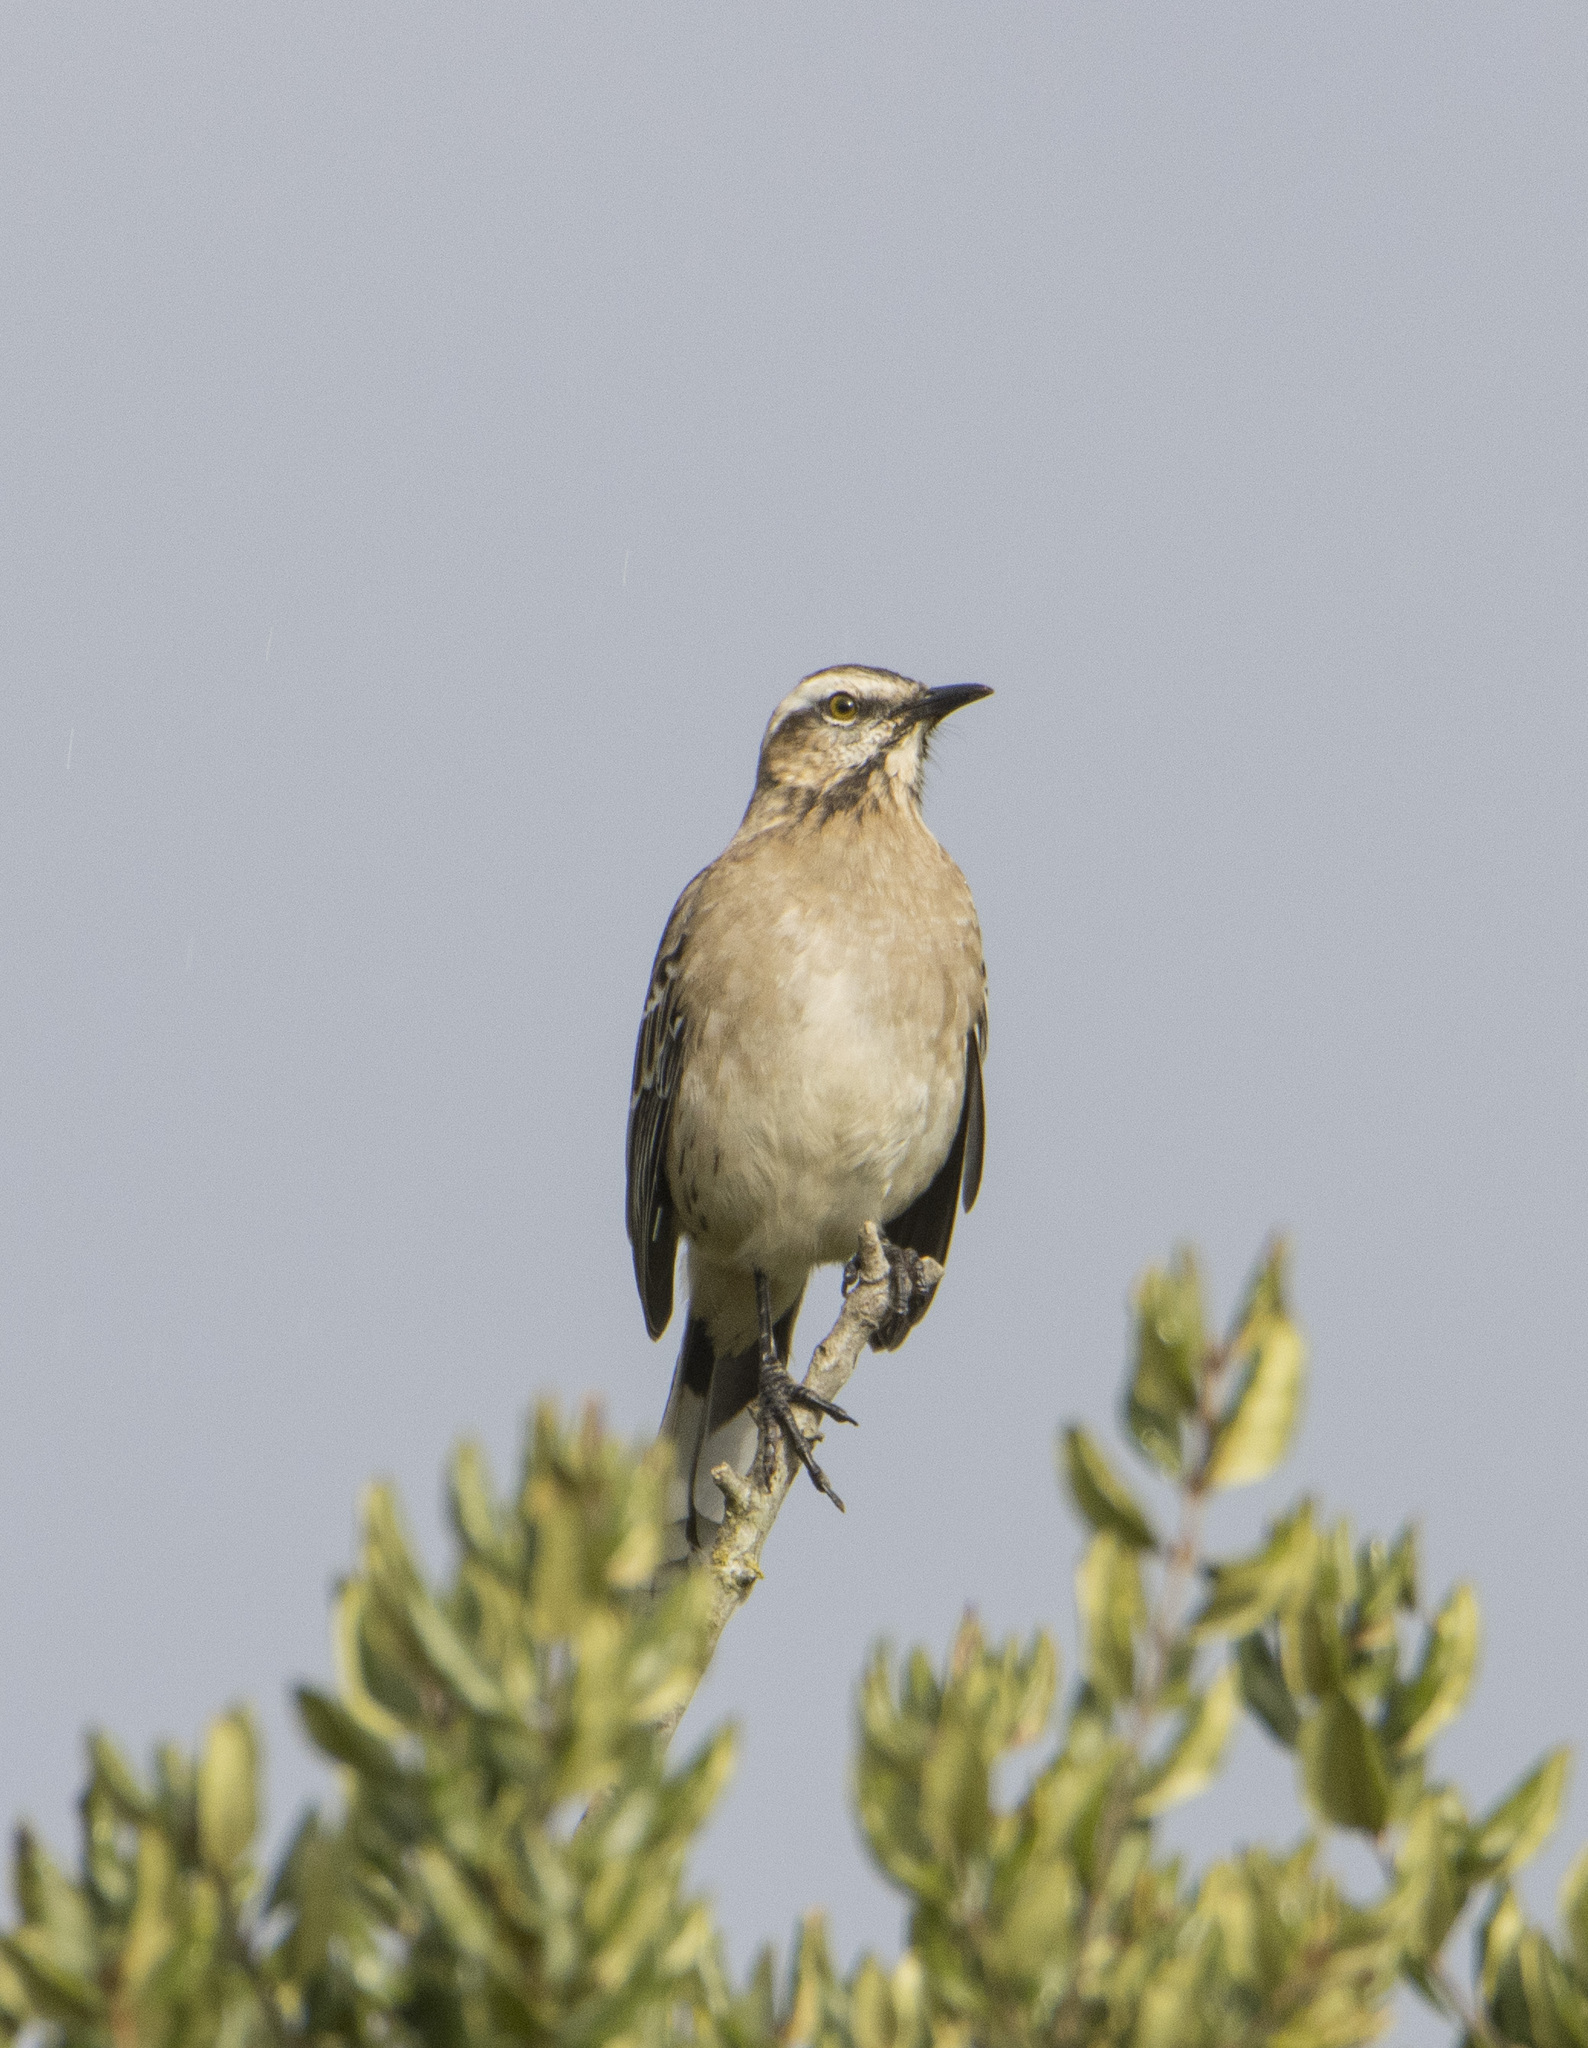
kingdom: Animalia
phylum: Chordata
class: Aves
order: Passeriformes
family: Mimidae
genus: Mimus
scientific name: Mimus thenca
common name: Chilean mockingbird
